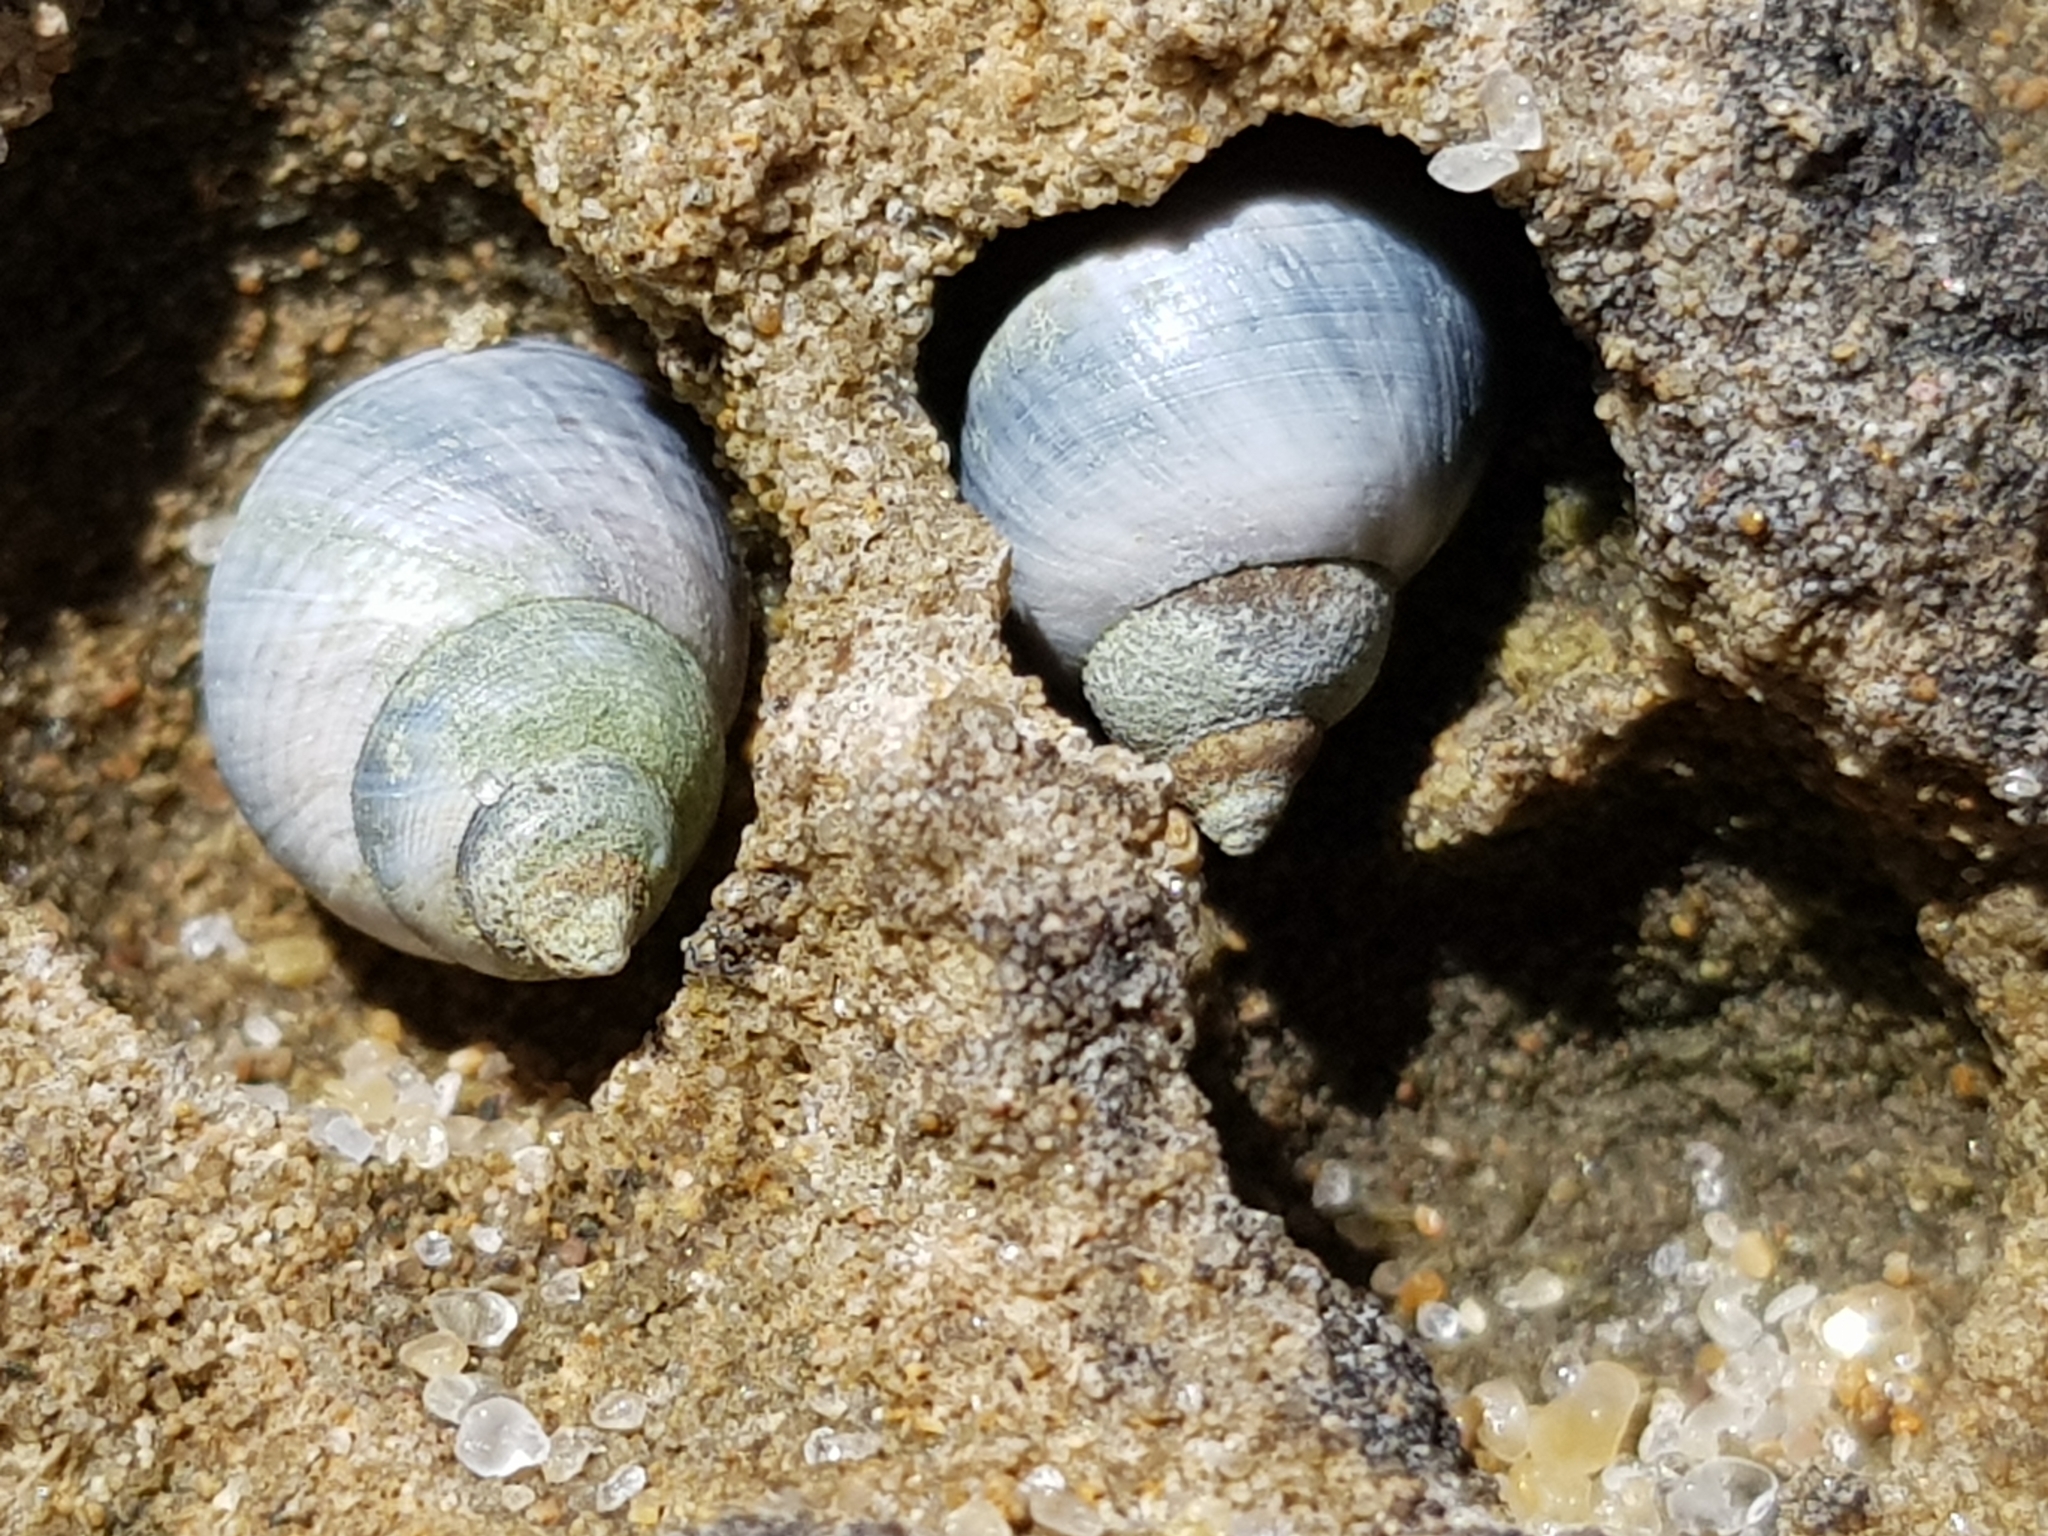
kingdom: Animalia
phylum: Mollusca
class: Gastropoda
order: Littorinimorpha
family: Littorinidae
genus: Austrolittorina
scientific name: Austrolittorina unifasciata
